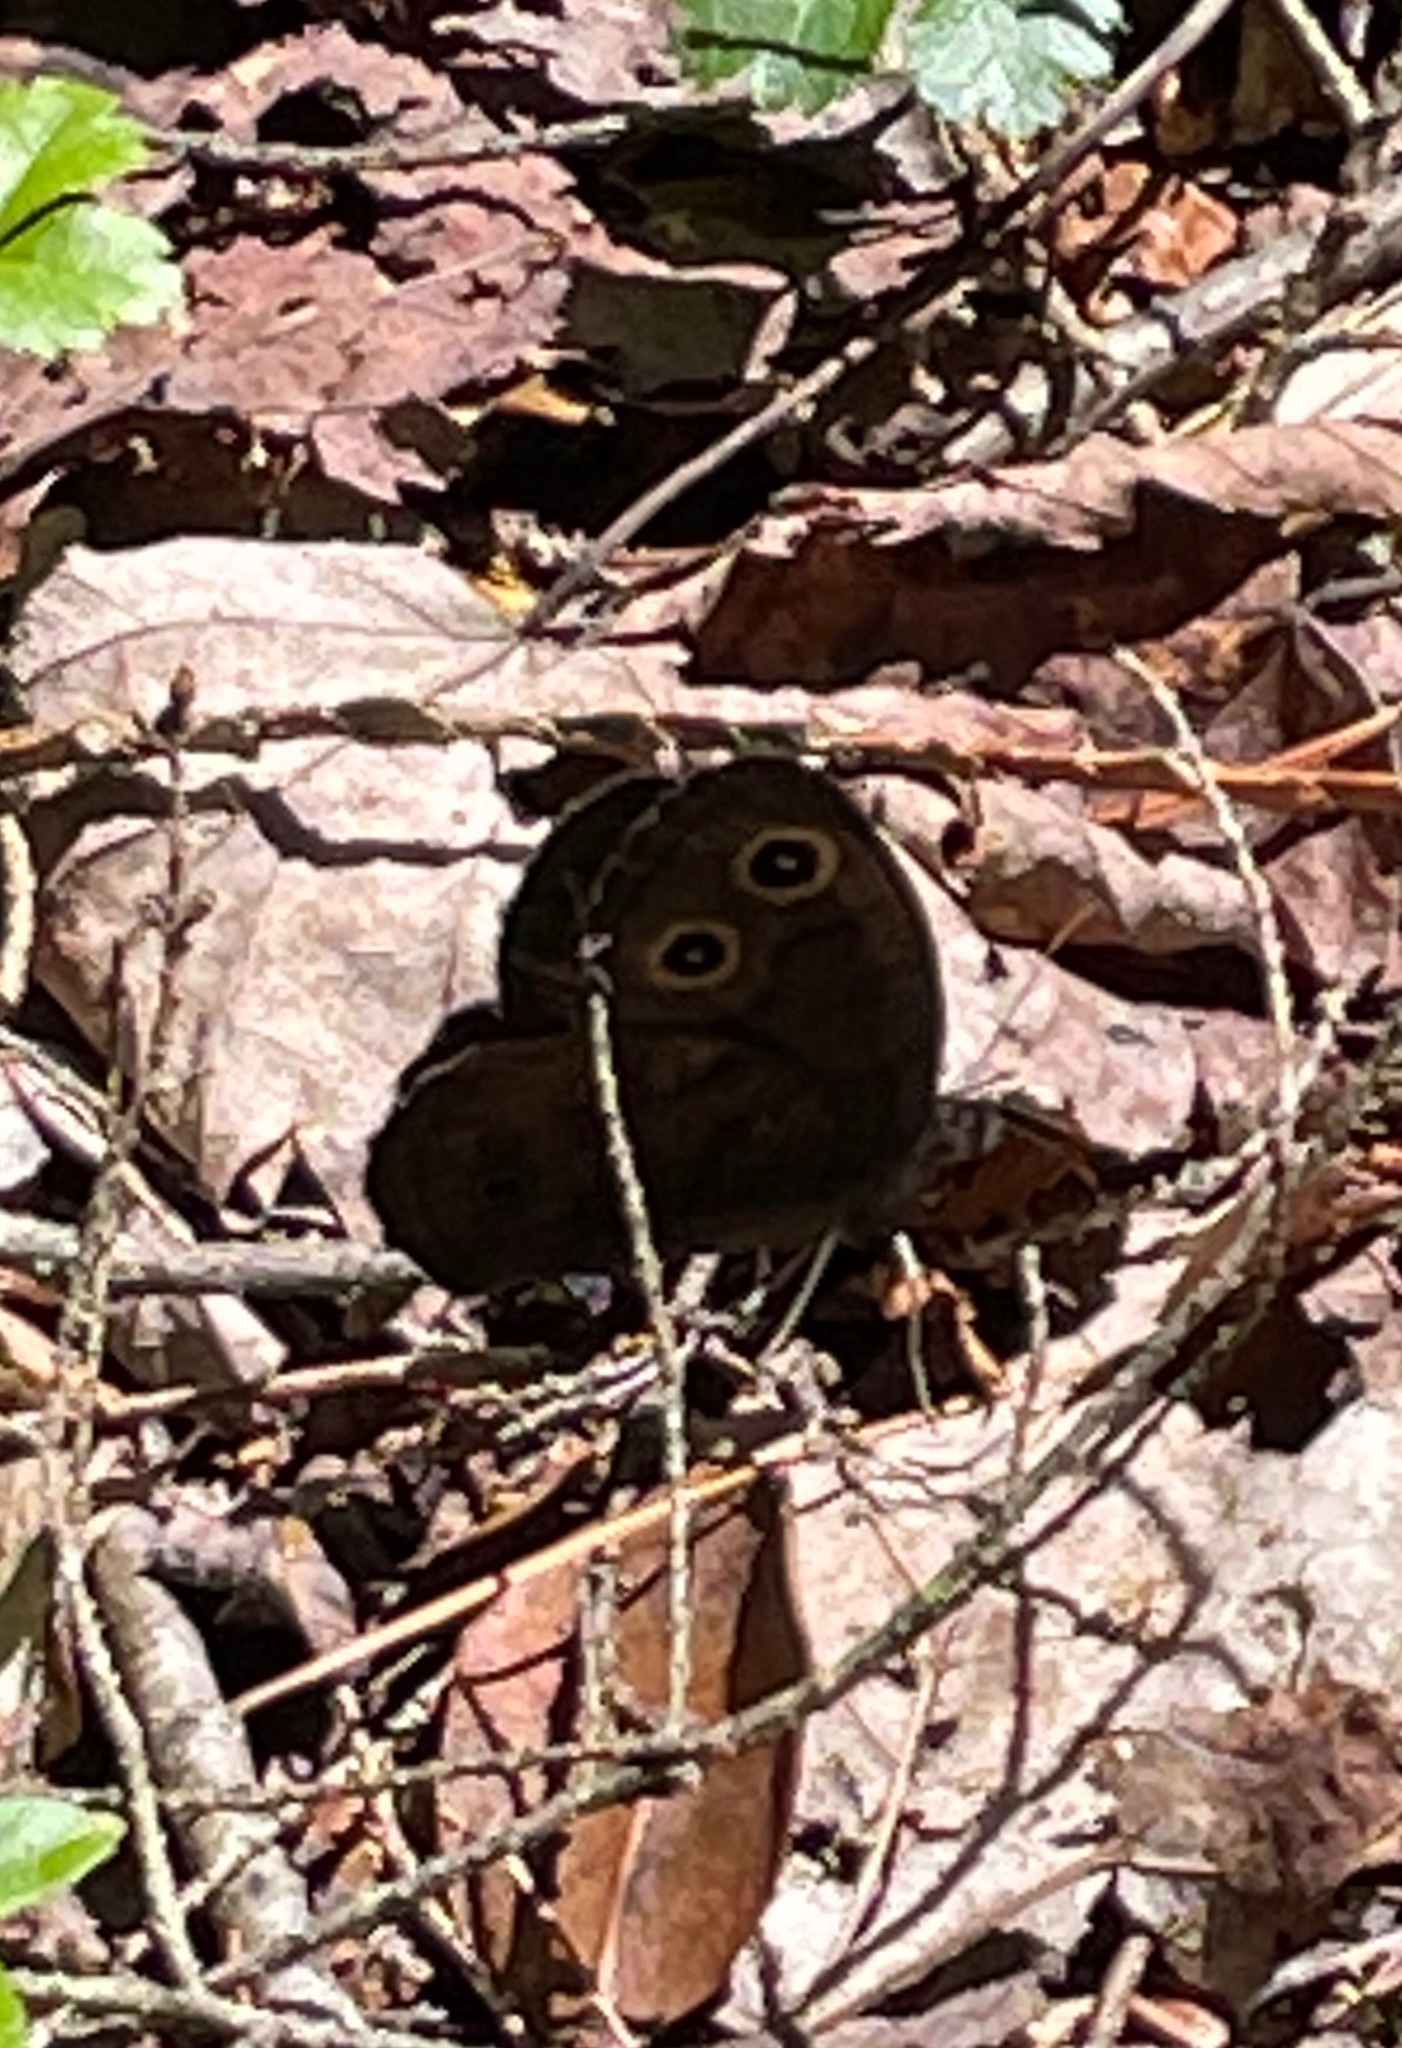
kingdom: Animalia
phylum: Arthropoda
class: Insecta
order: Lepidoptera
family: Nymphalidae
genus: Cercyonis
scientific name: Cercyonis pegala
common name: Common wood-nymph
